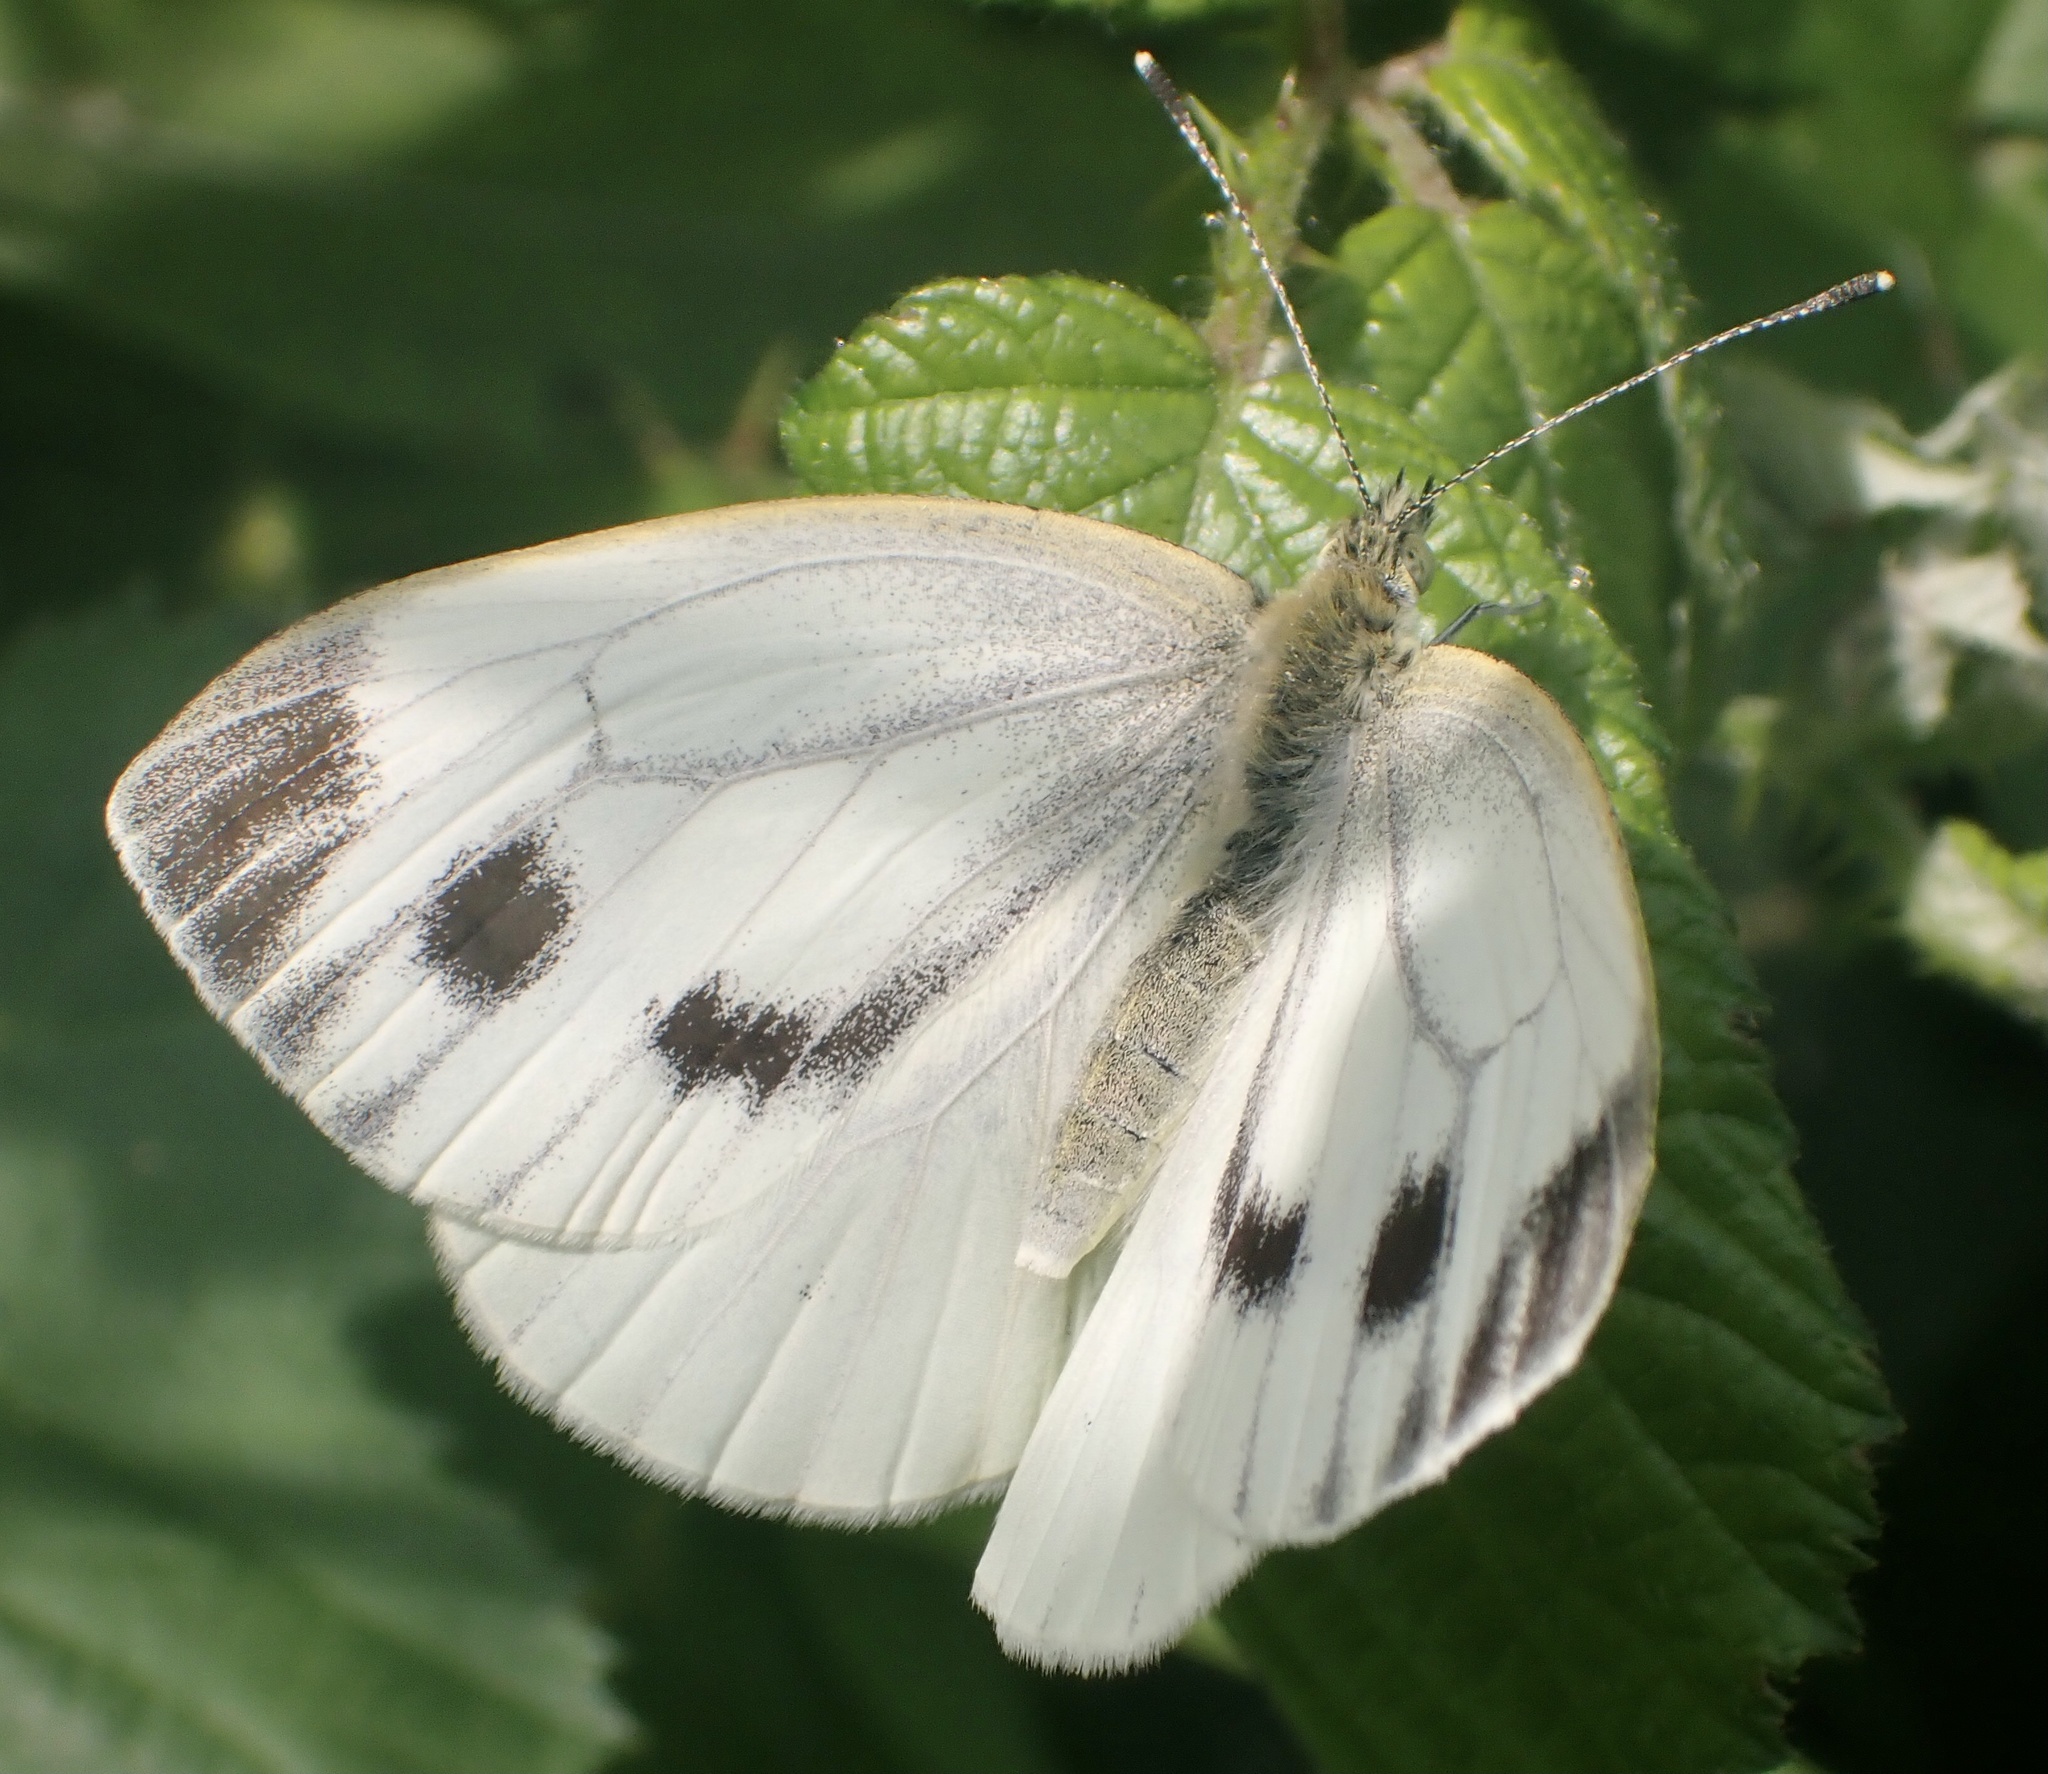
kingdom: Animalia
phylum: Arthropoda
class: Insecta
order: Lepidoptera
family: Pieridae
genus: Pieris
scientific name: Pieris napi
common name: Green-veined white
